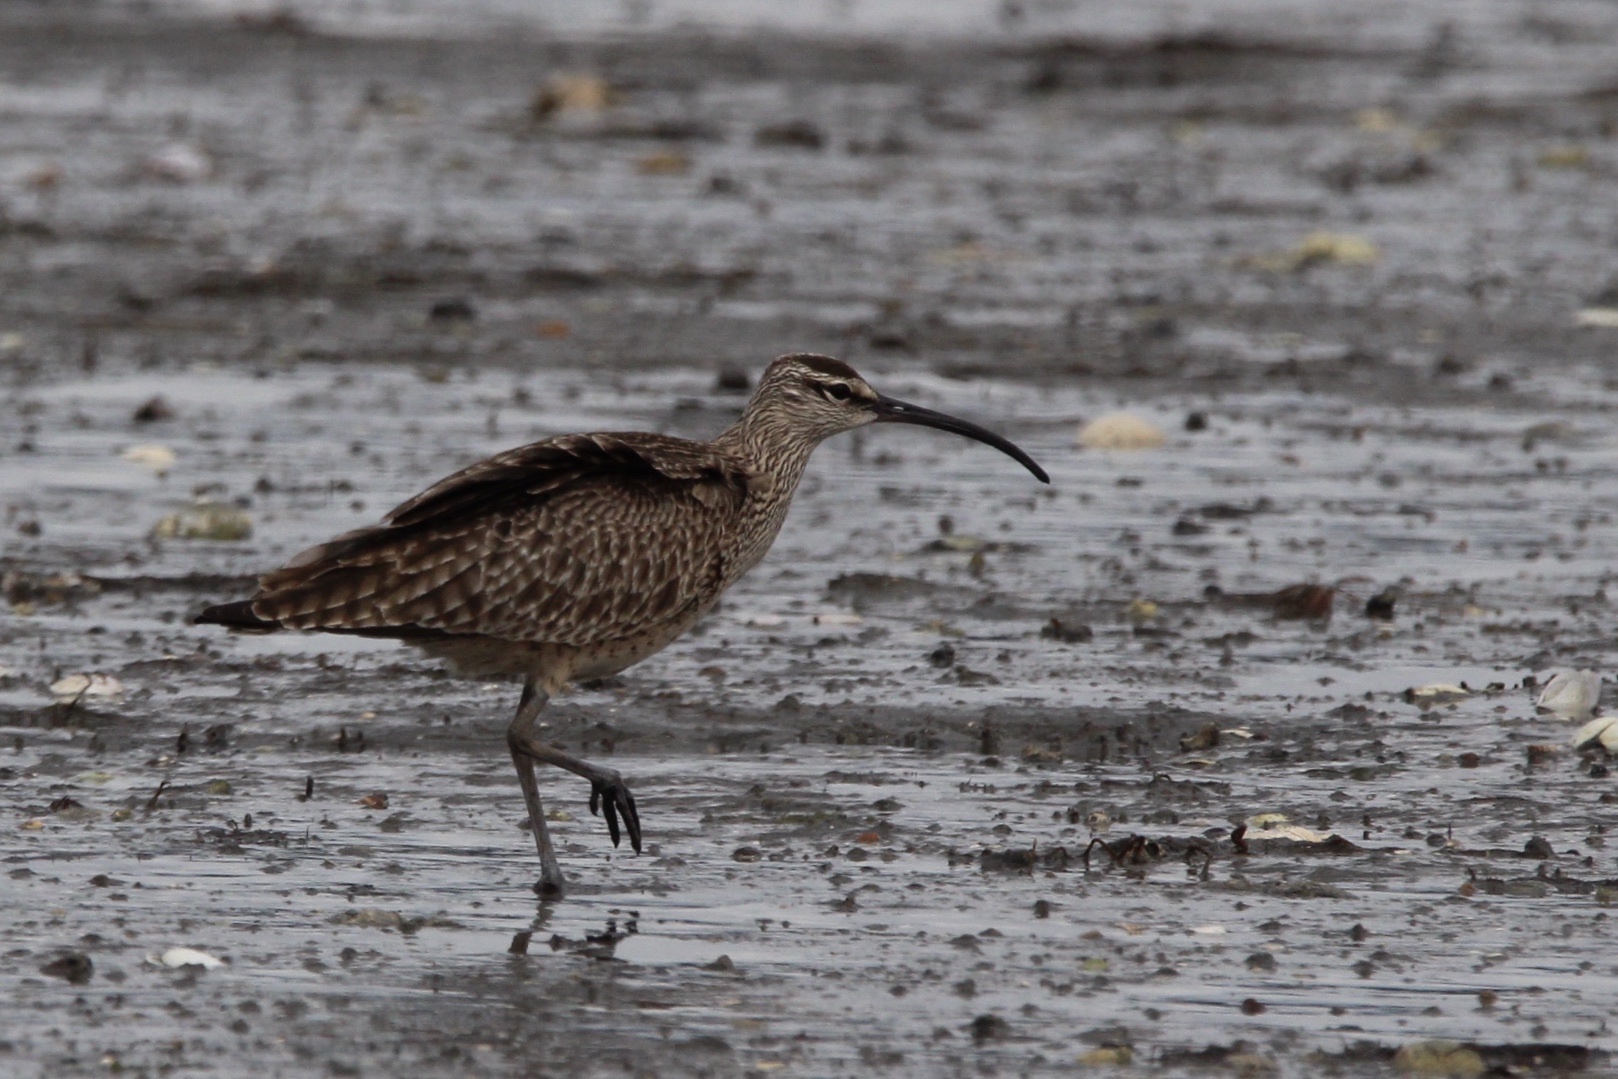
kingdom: Animalia
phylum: Chordata
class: Aves
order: Charadriiformes
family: Scolopacidae
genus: Numenius
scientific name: Numenius phaeopus
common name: Whimbrel
